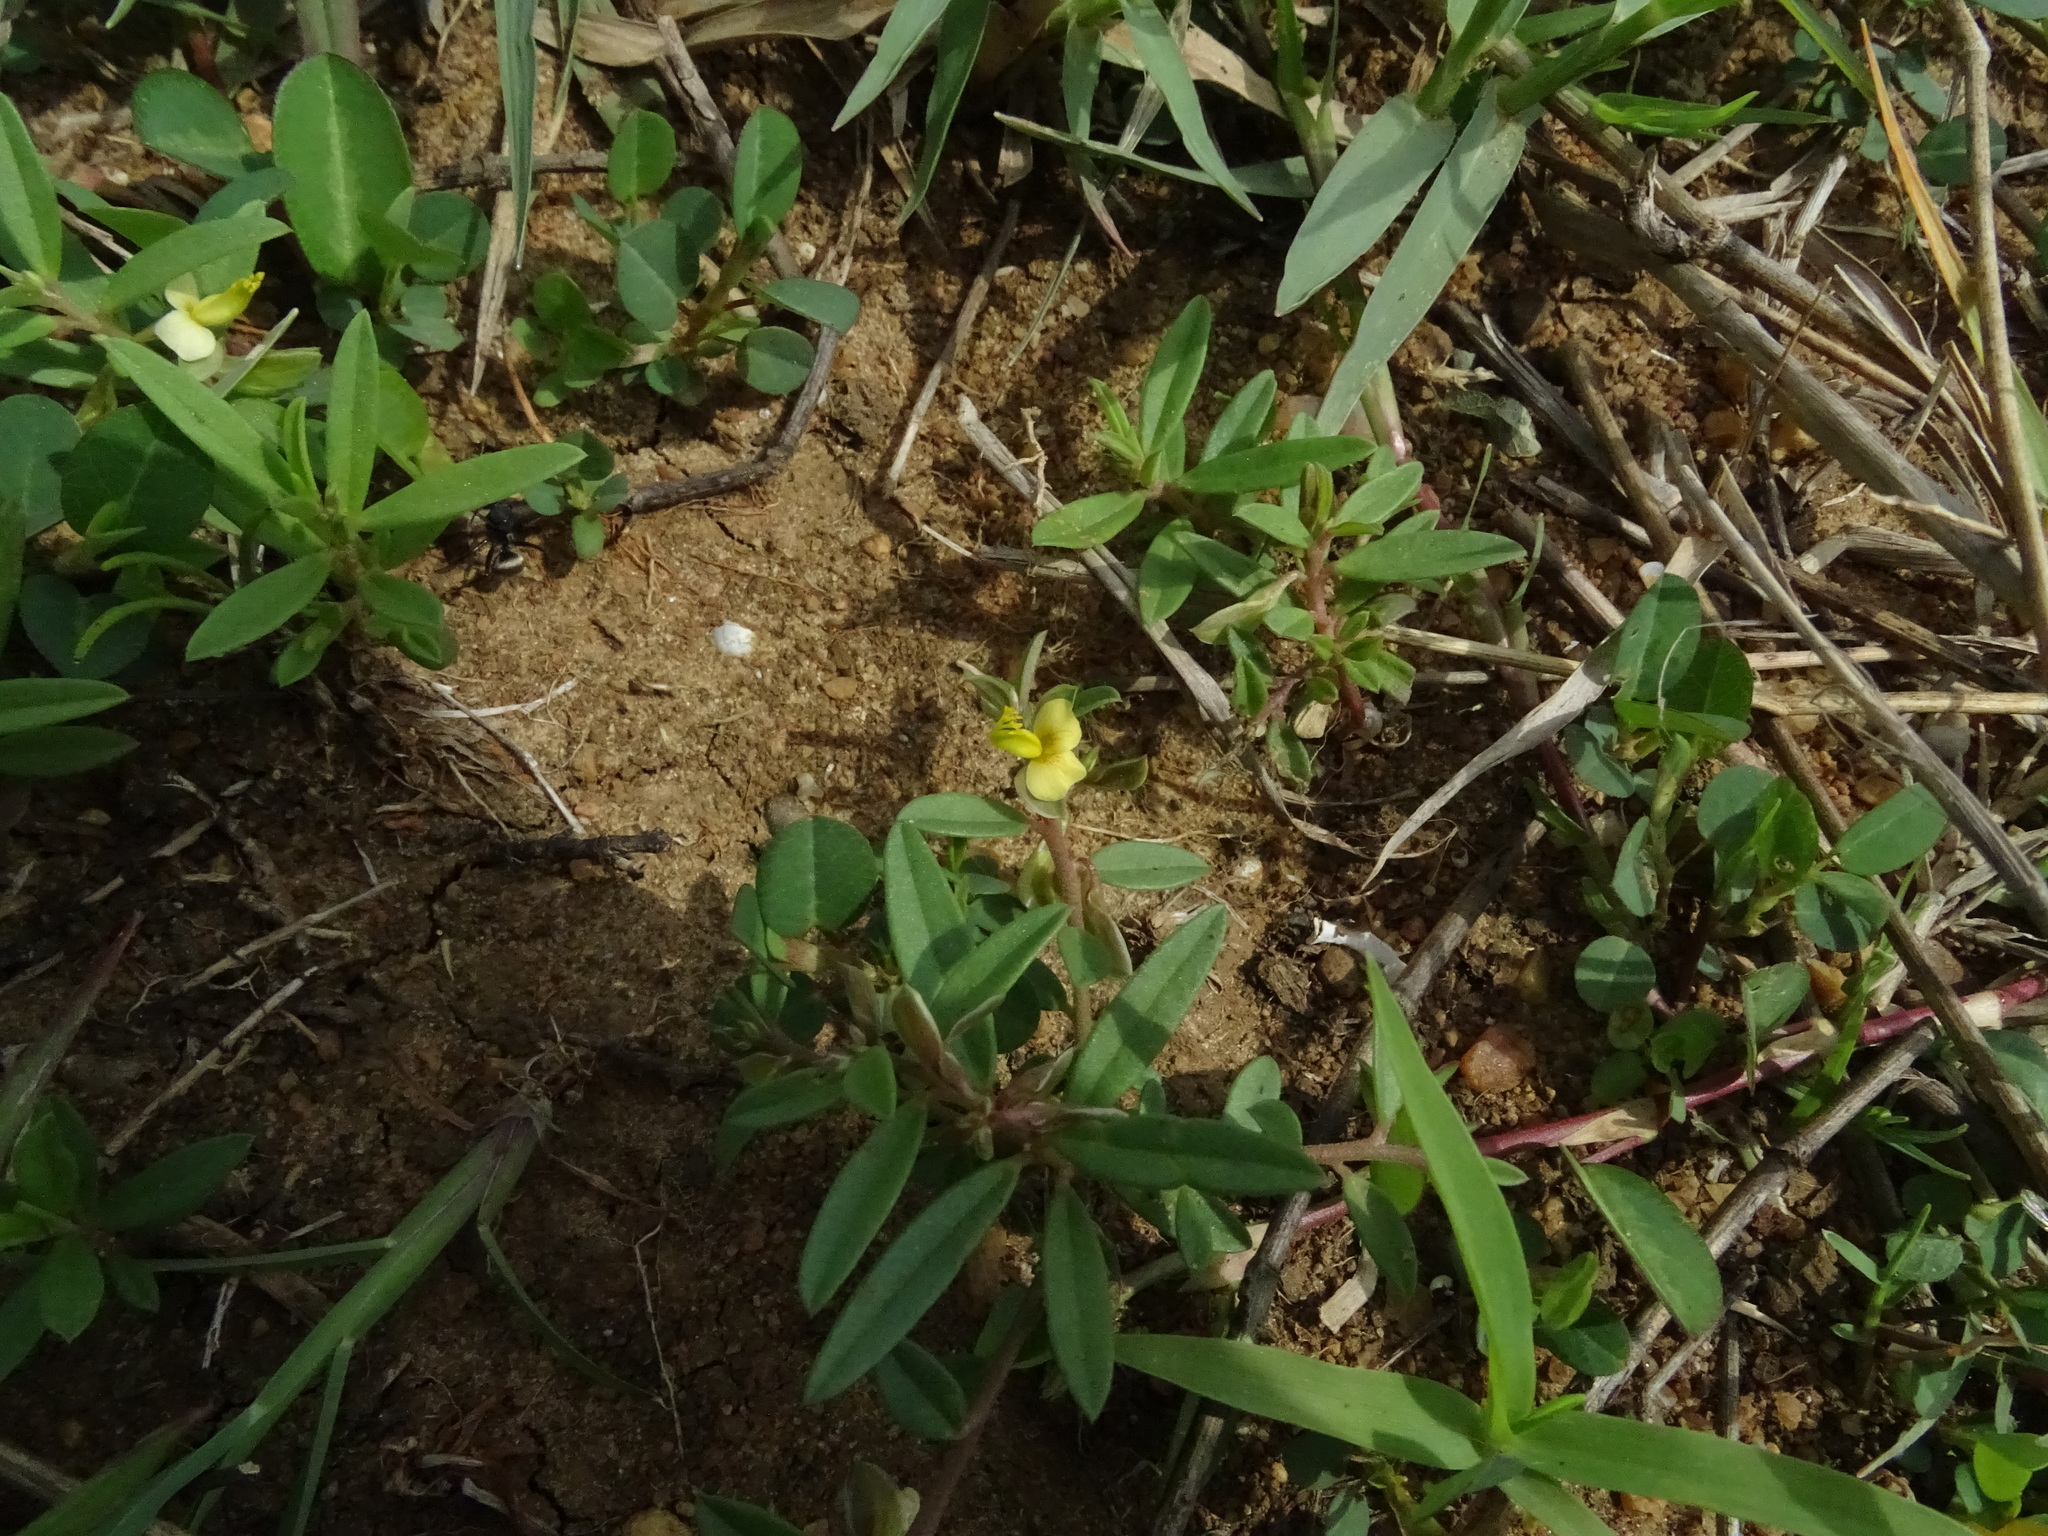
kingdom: Plantae
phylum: Tracheophyta
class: Magnoliopsida
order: Fabales
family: Polygalaceae
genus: Polygala
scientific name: Polygala arvensis
